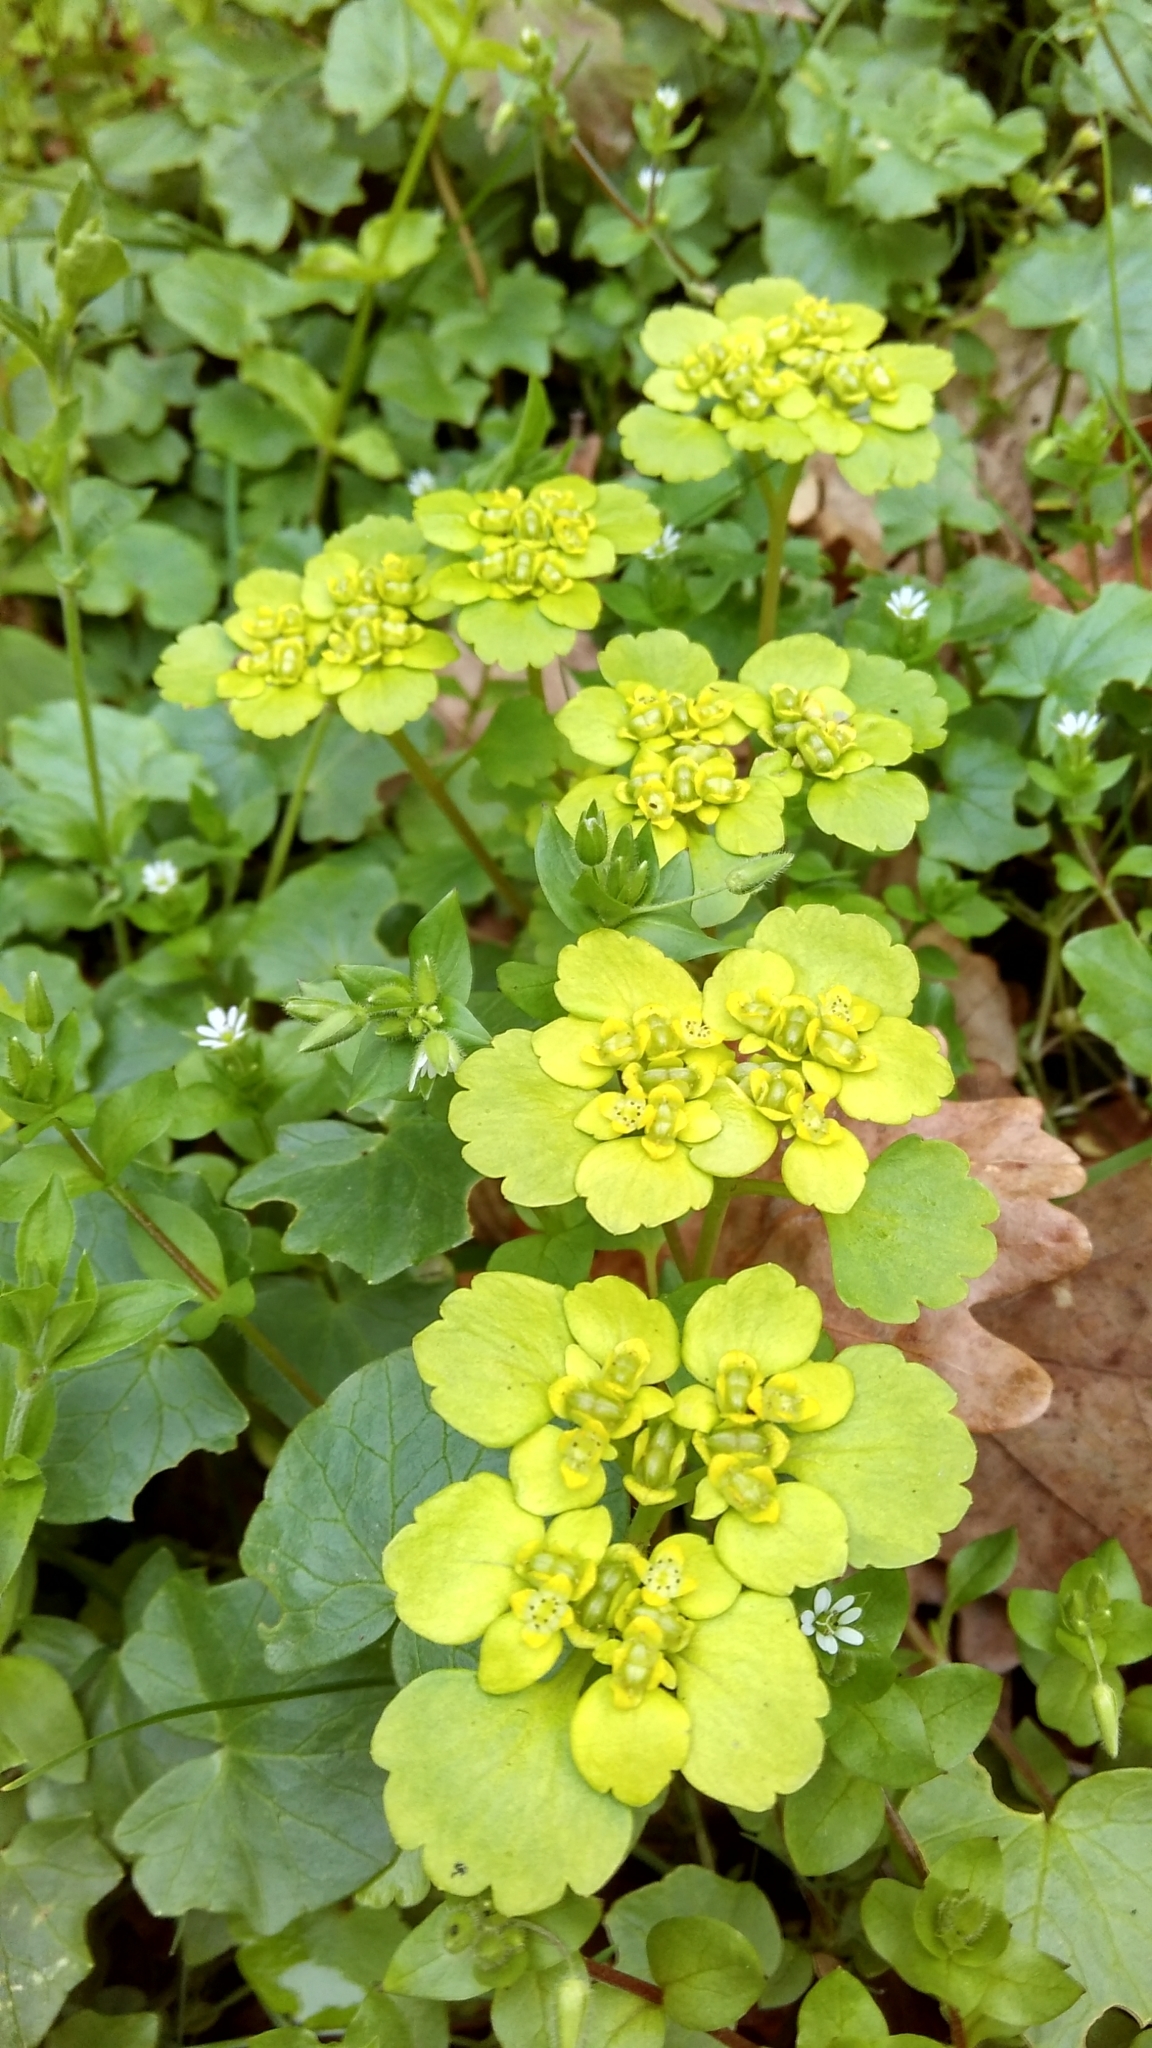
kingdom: Plantae
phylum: Tracheophyta
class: Magnoliopsida
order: Saxifragales
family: Saxifragaceae
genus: Chrysosplenium
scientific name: Chrysosplenium alternifolium
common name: Alternate-leaved golden-saxifrage
